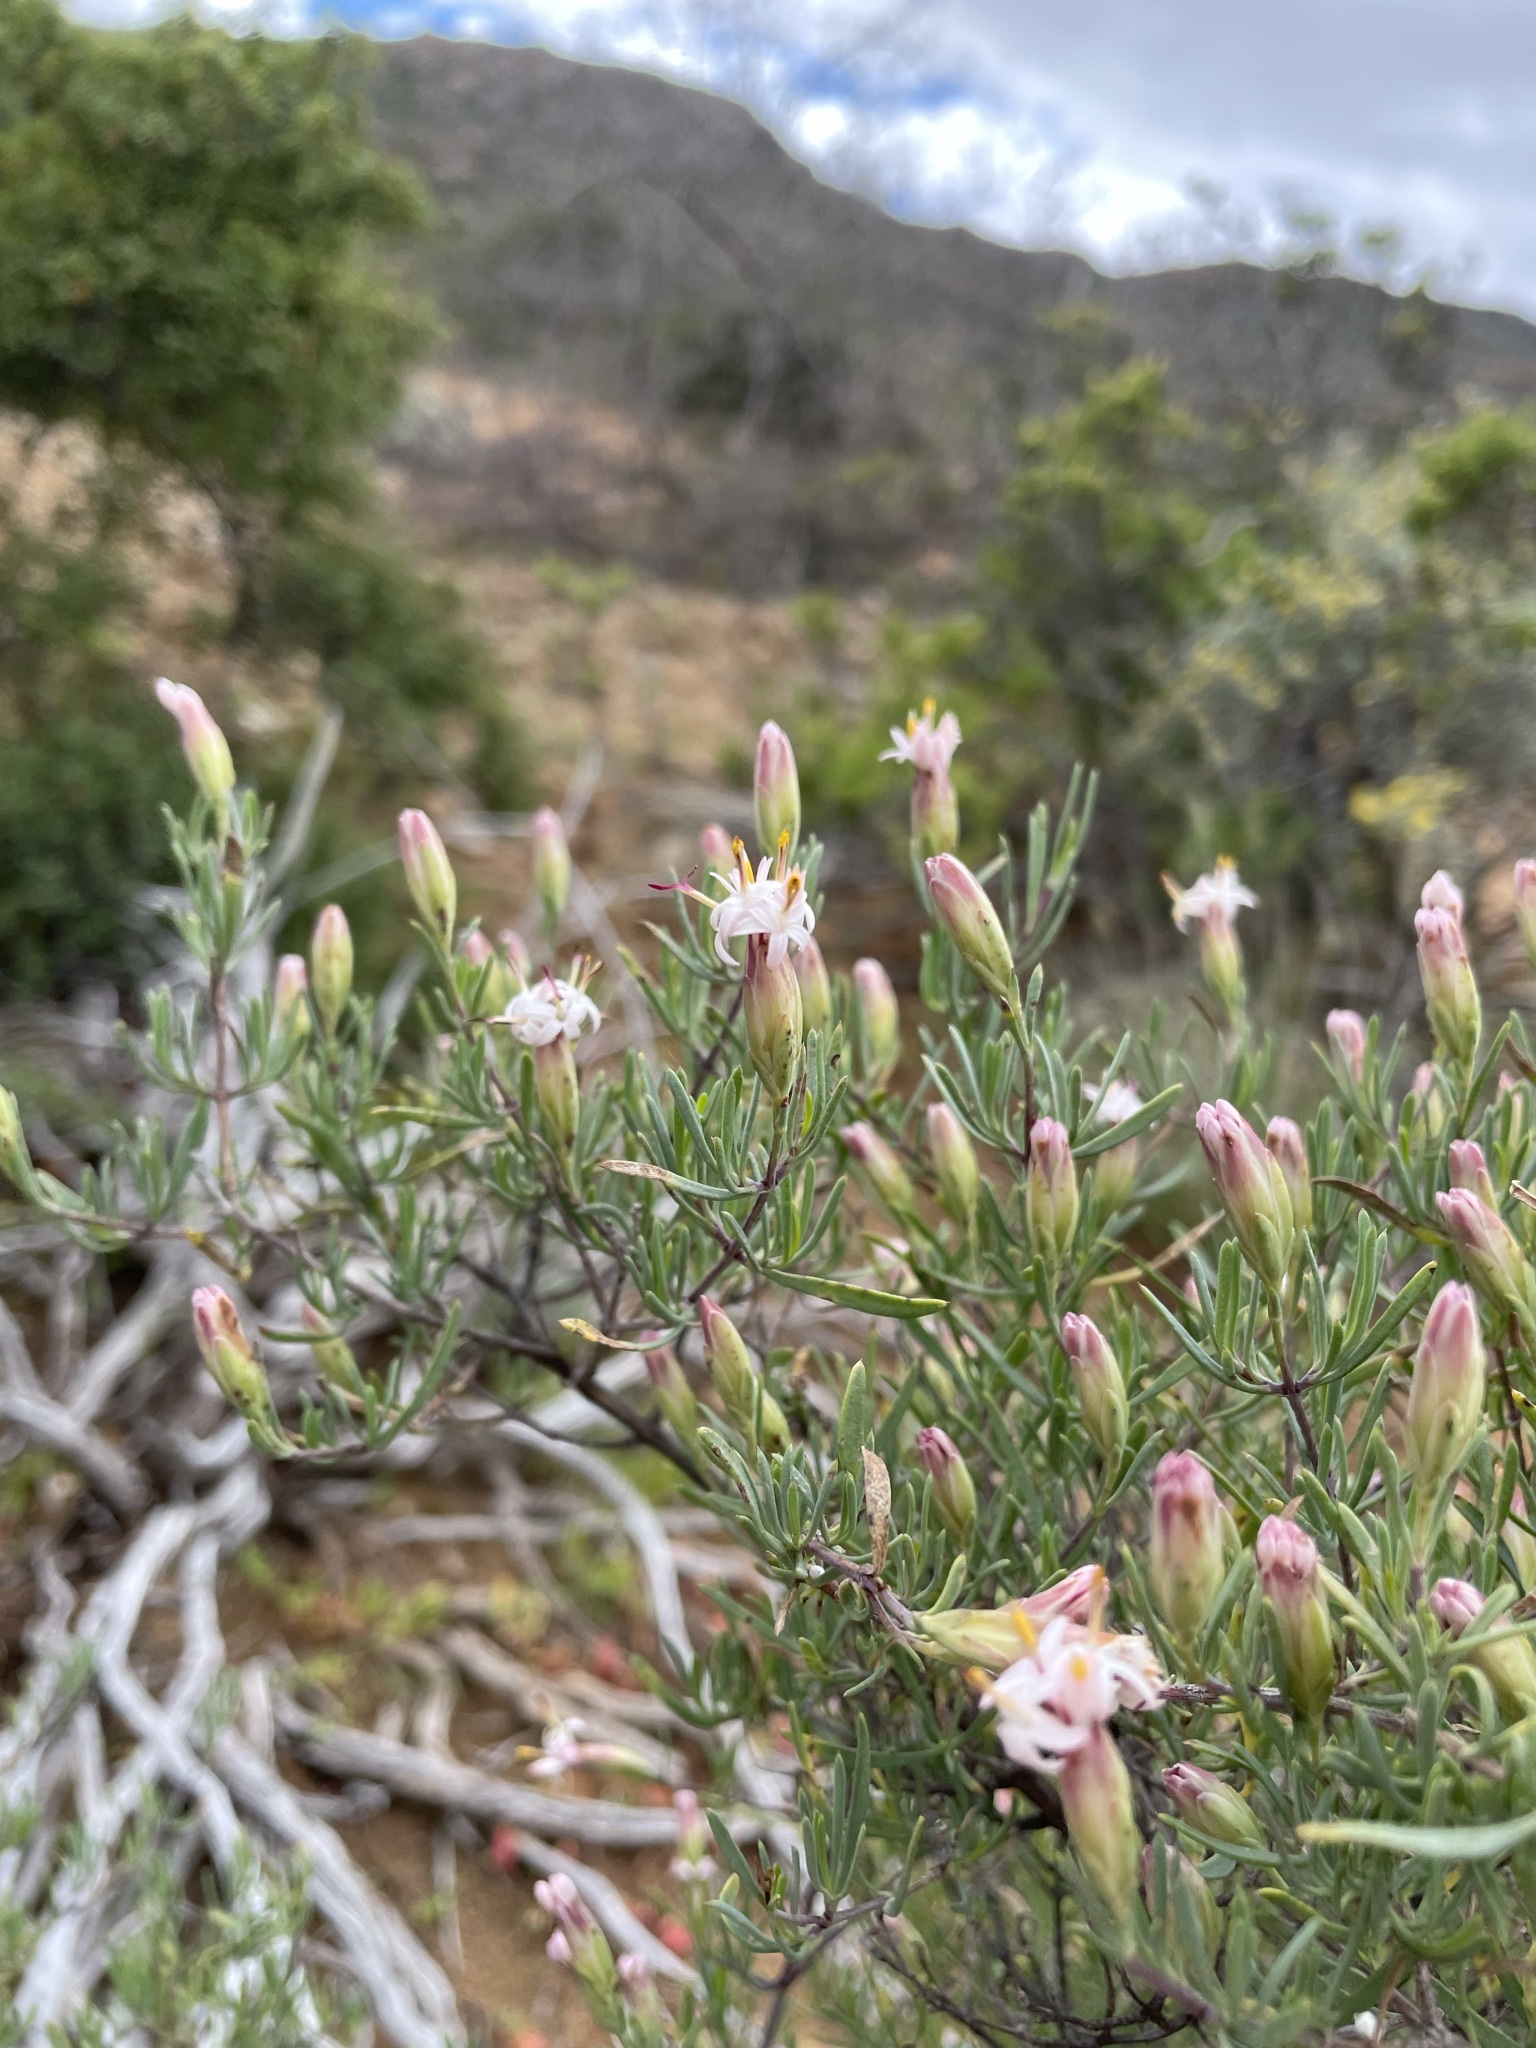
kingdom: Plantae
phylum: Tracheophyta
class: Magnoliopsida
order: Asterales
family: Asteraceae
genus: Pteronia
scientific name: Pteronia leptospermoides
